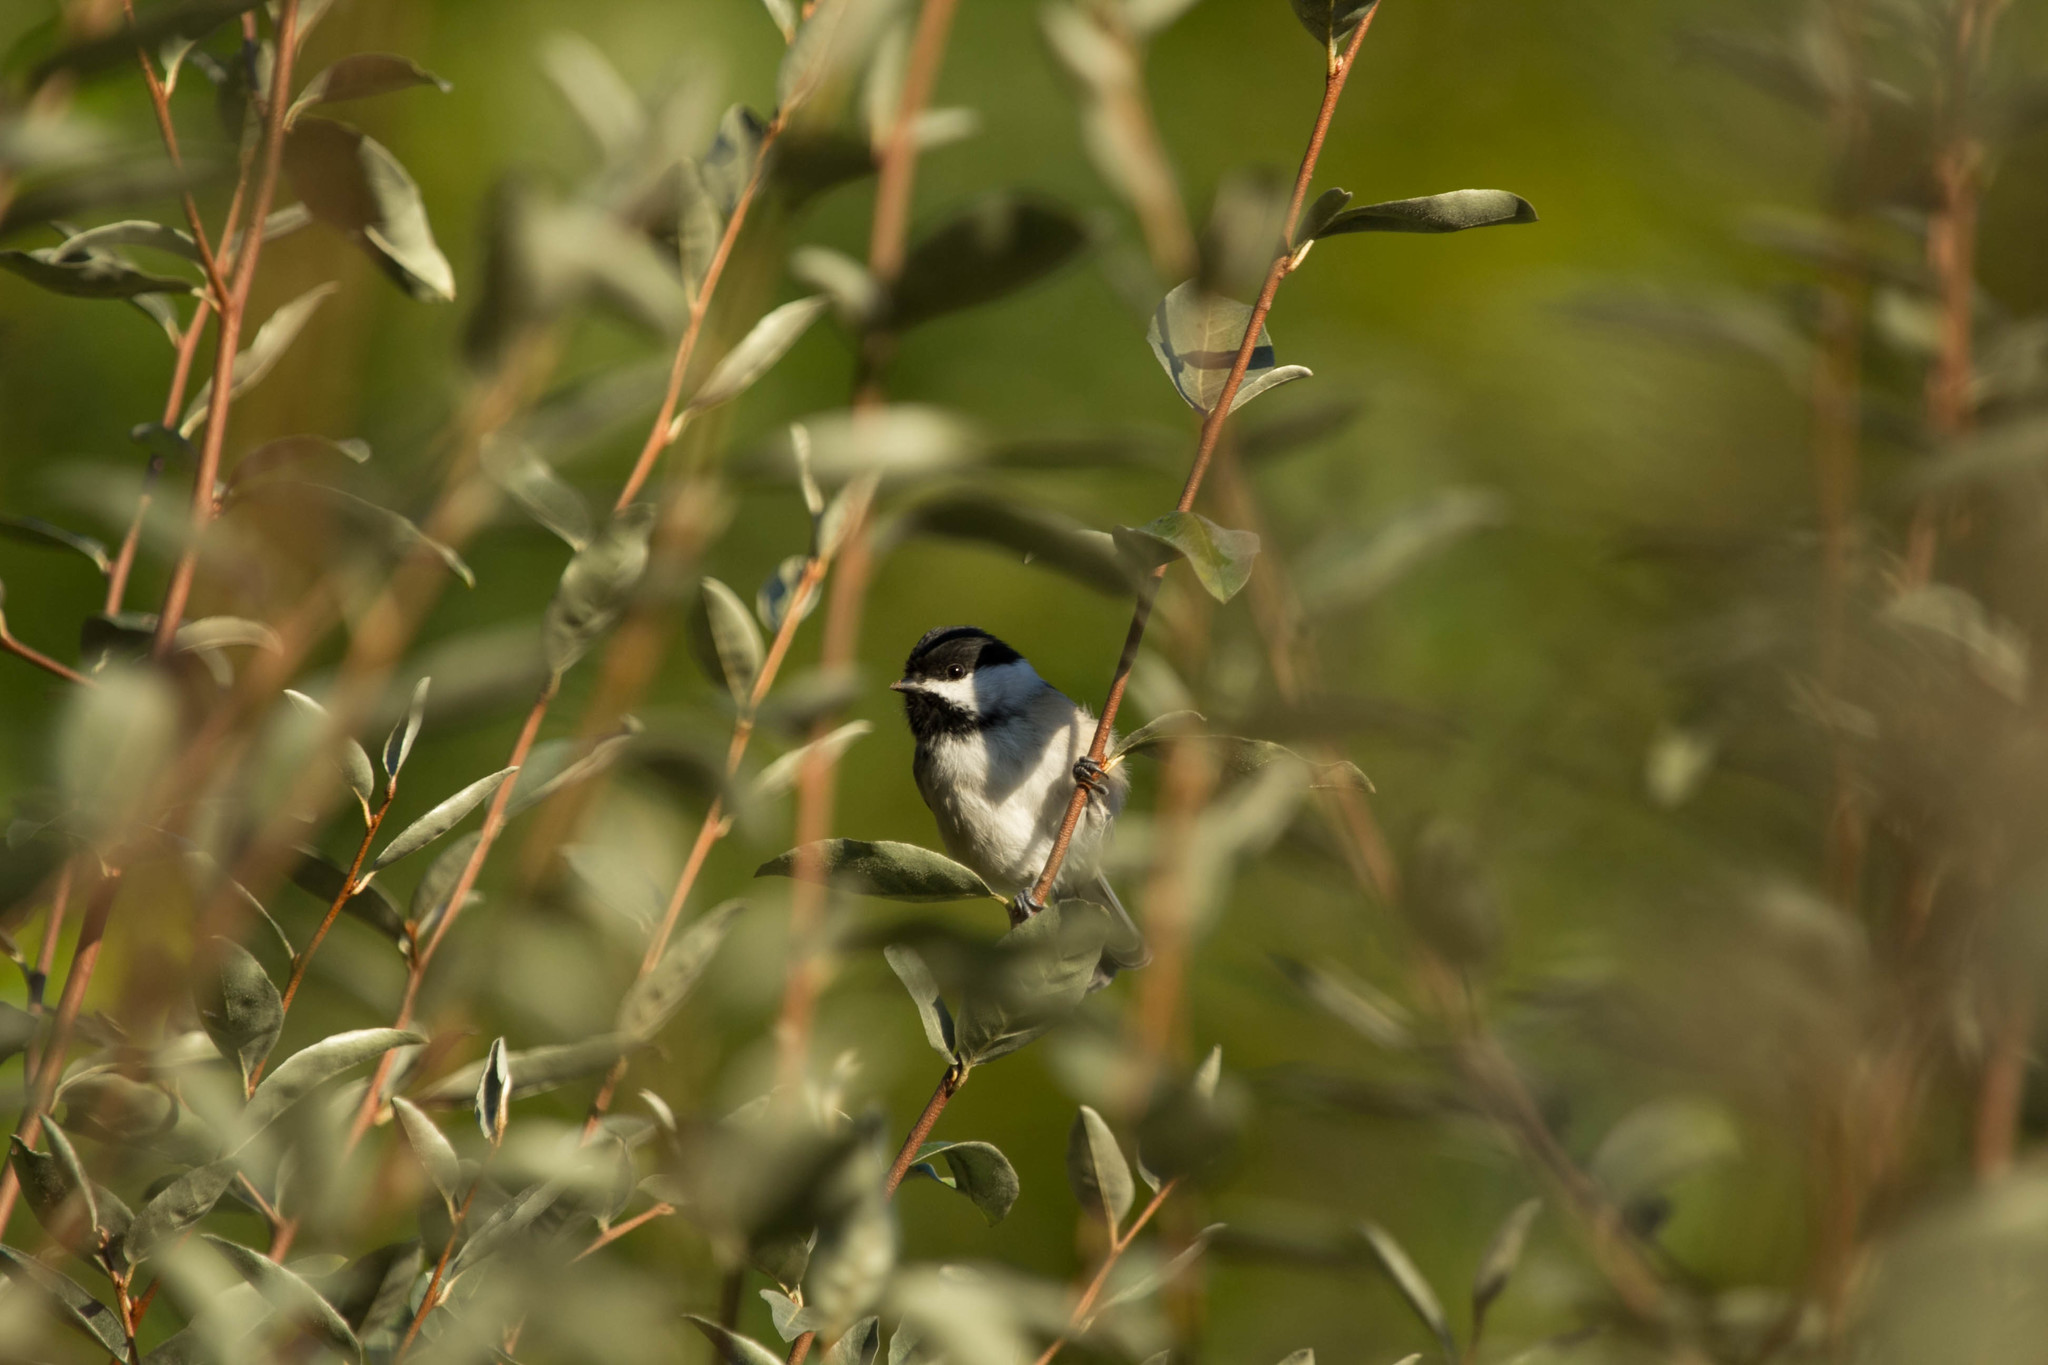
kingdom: Animalia
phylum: Chordata
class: Aves
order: Passeriformes
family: Paridae
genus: Poecile
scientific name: Poecile atricapillus
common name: Black-capped chickadee
